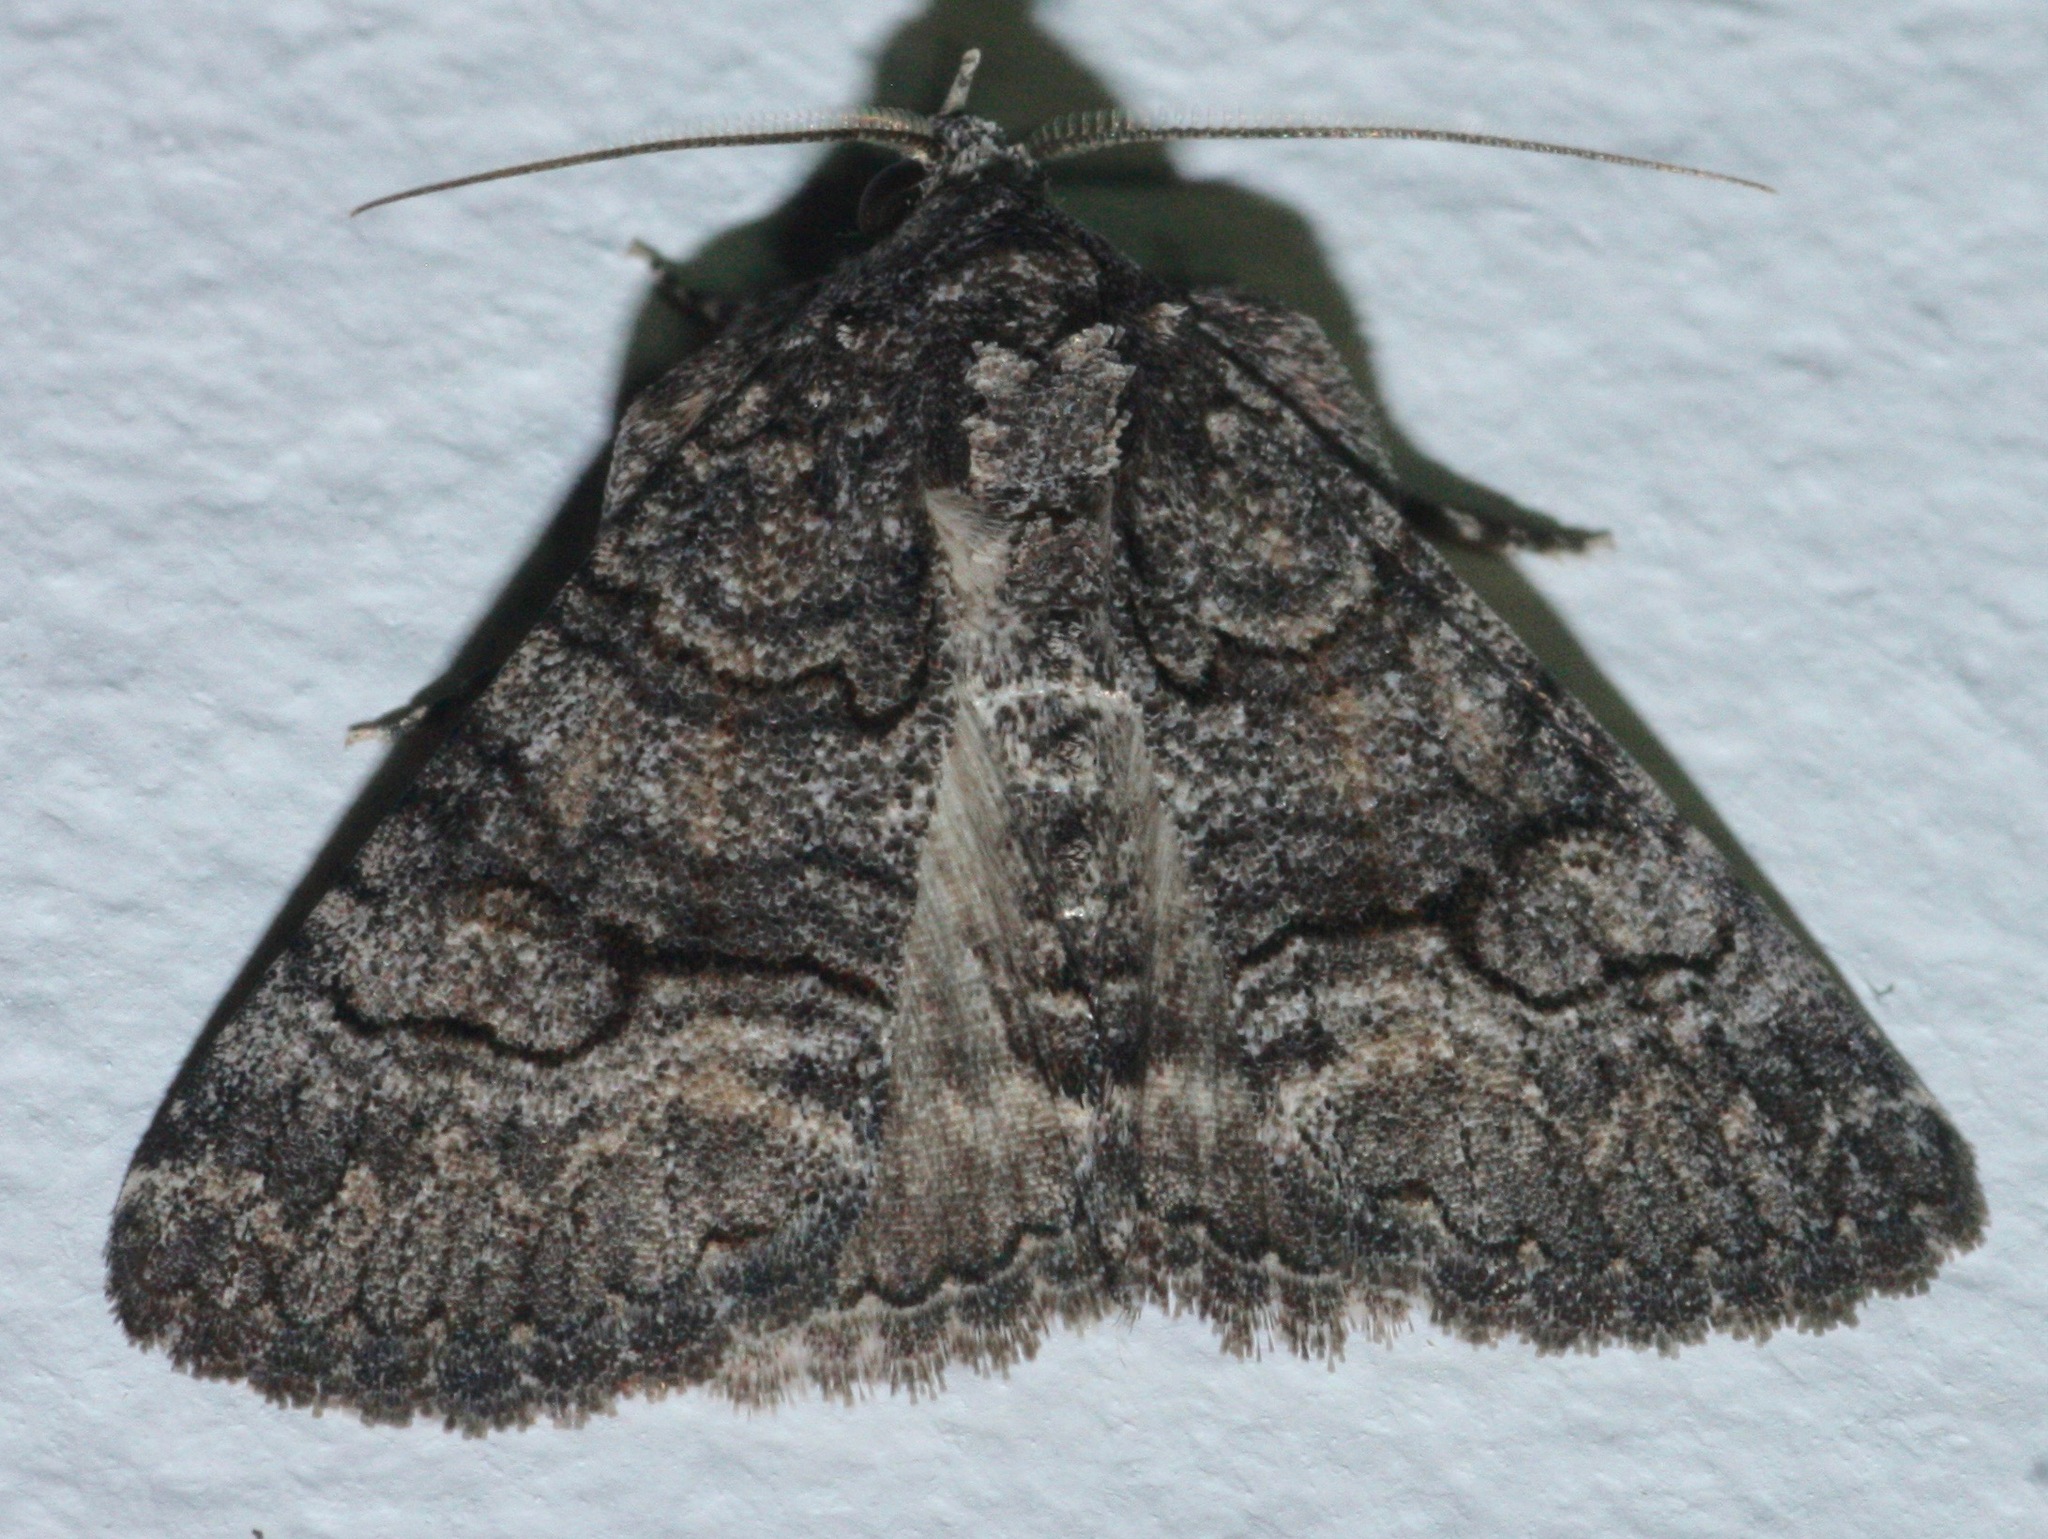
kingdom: Animalia
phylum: Arthropoda
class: Insecta
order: Lepidoptera
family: Erebidae
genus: Elousa
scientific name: Elousa mima
